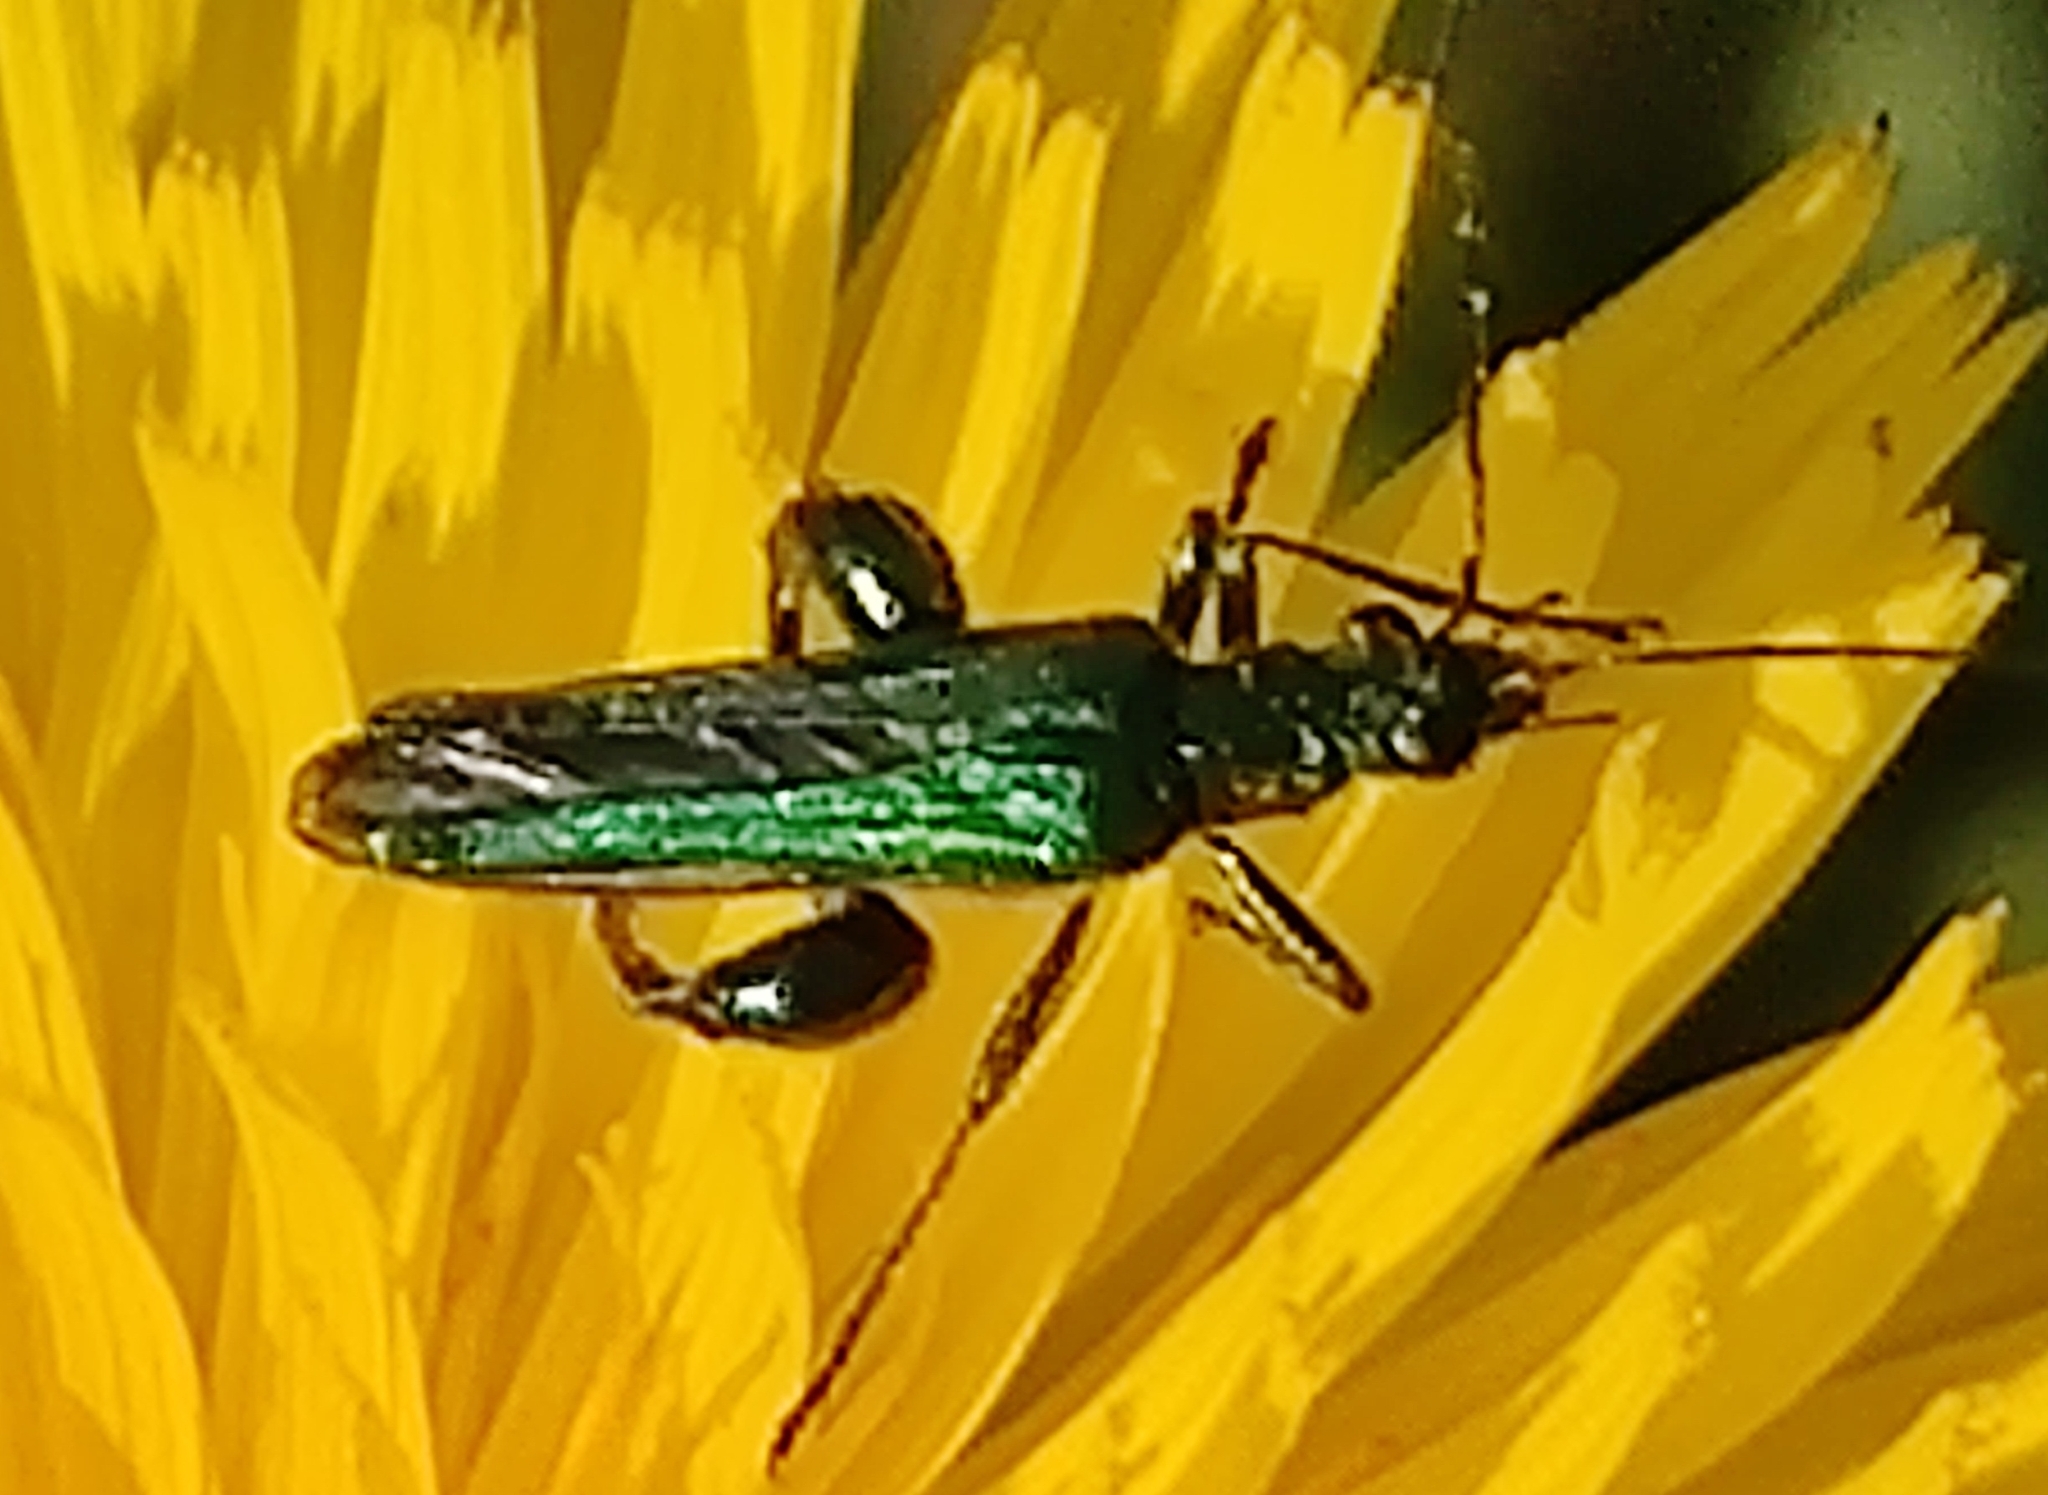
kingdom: Animalia
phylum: Arthropoda
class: Insecta
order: Coleoptera
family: Oedemeridae
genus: Oedemera
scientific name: Oedemera nobilis
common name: Swollen-thighed beetle
